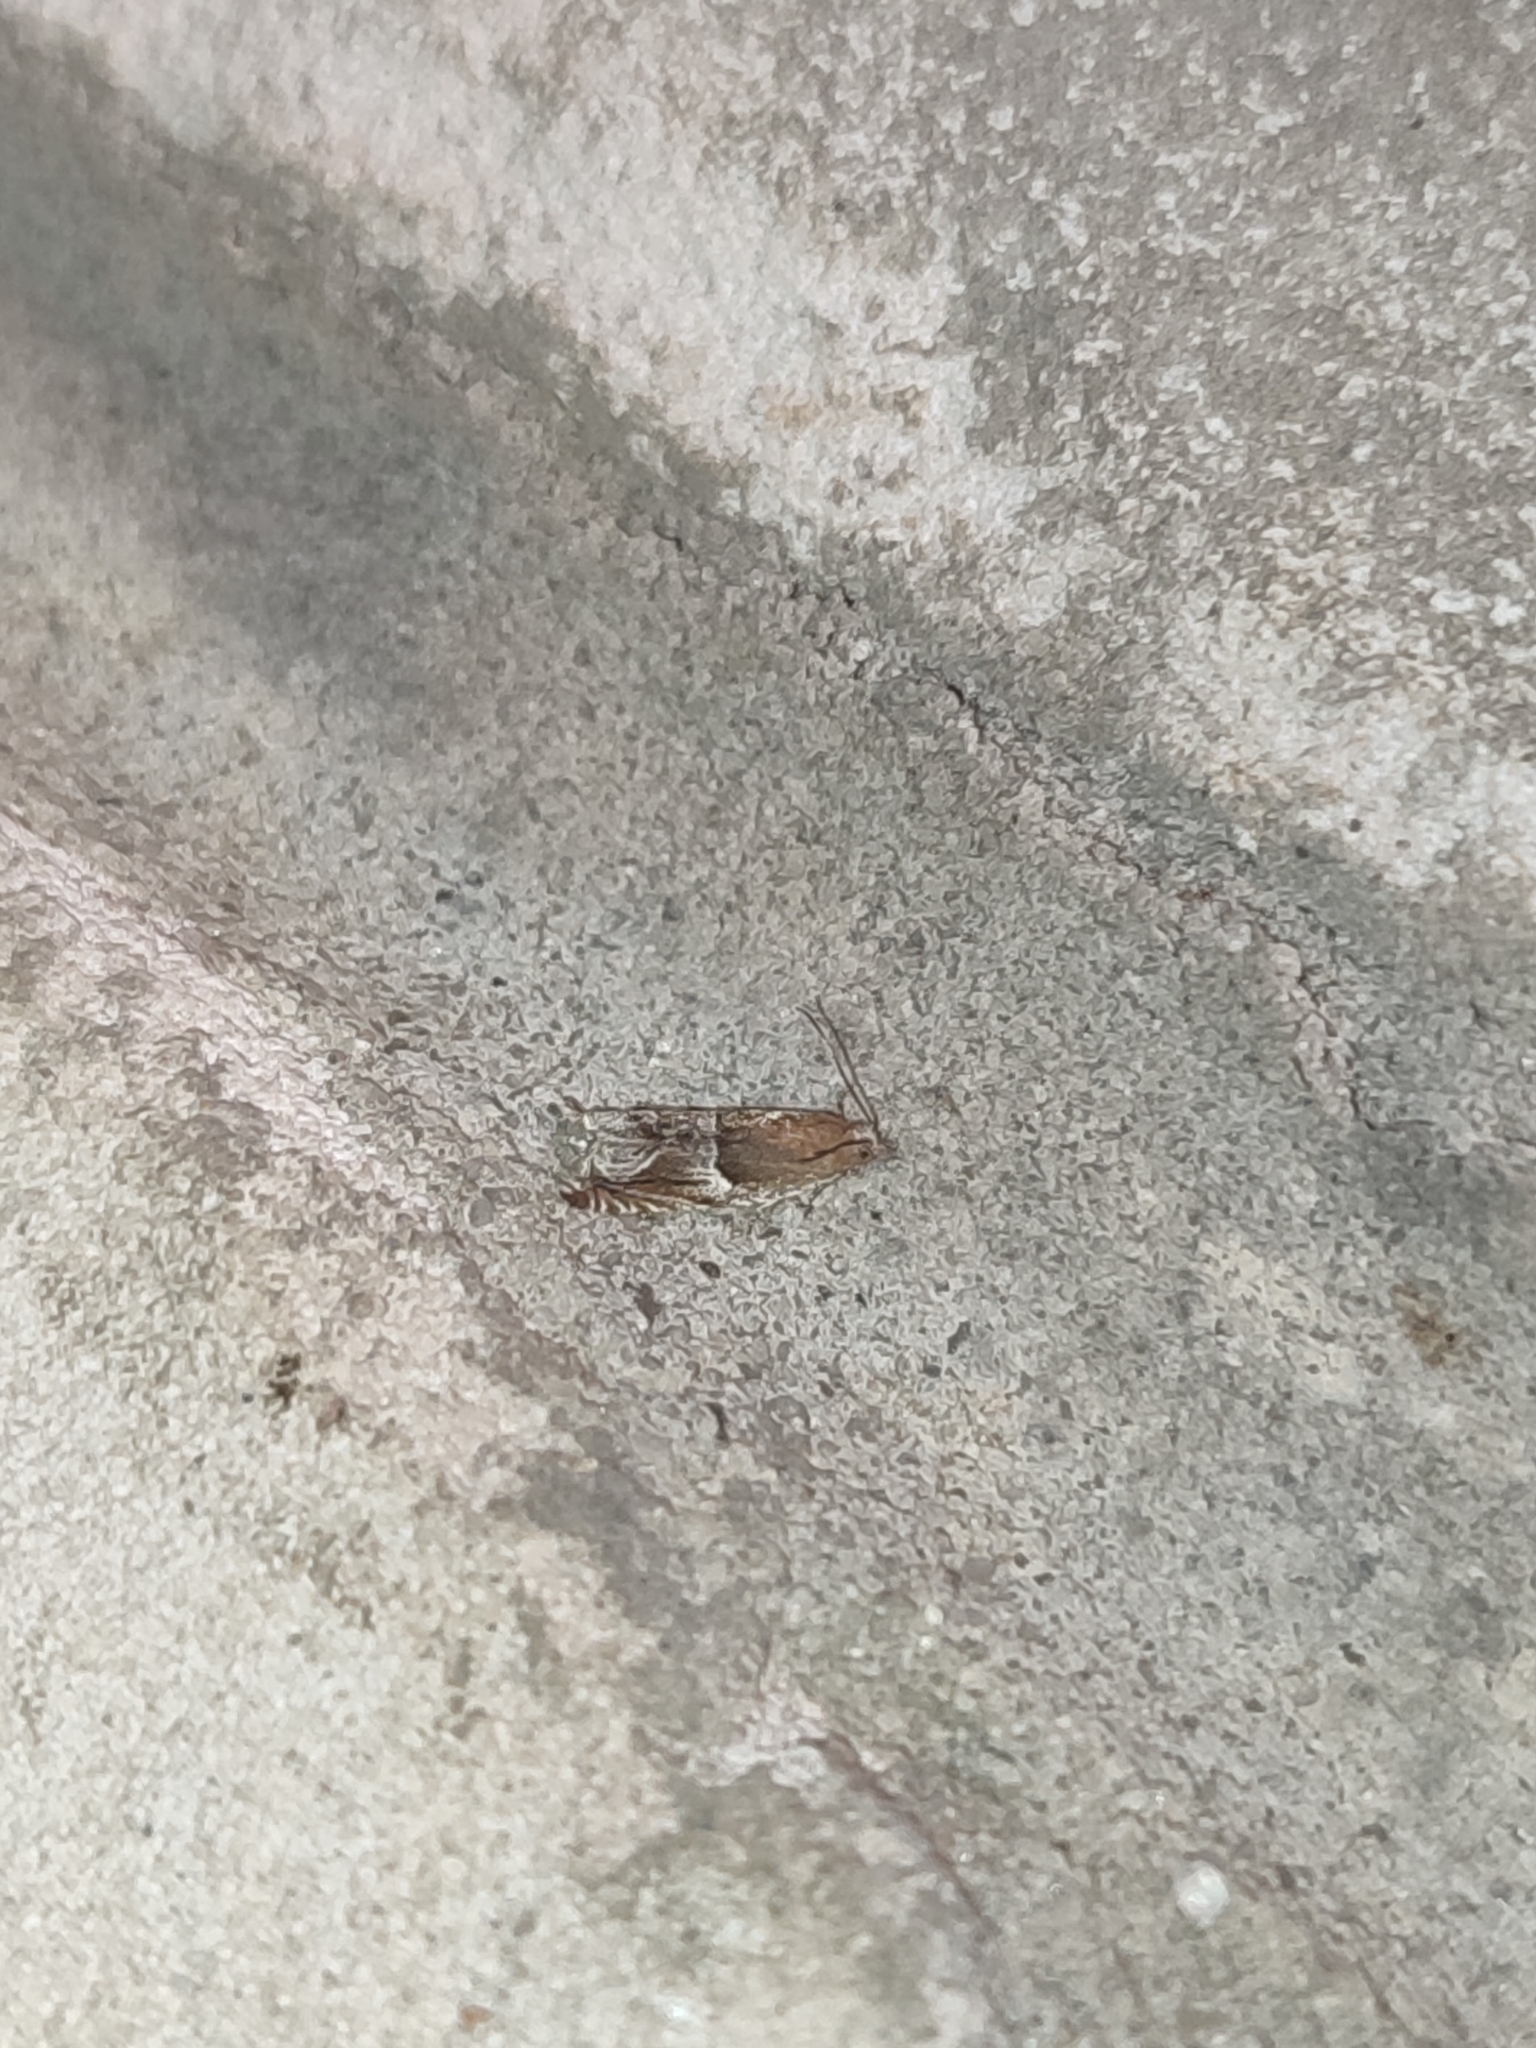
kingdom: Animalia
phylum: Arthropoda
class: Insecta
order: Lepidoptera
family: Tortricidae
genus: Ancylis
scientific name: Ancylis comptana
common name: Little roller
